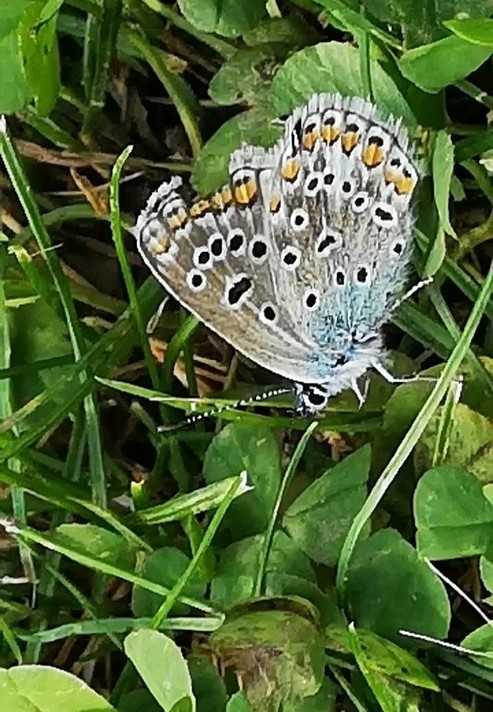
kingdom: Animalia
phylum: Arthropoda
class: Insecta
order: Lepidoptera
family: Lycaenidae
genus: Polyommatus
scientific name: Polyommatus icarus
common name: Common blue
